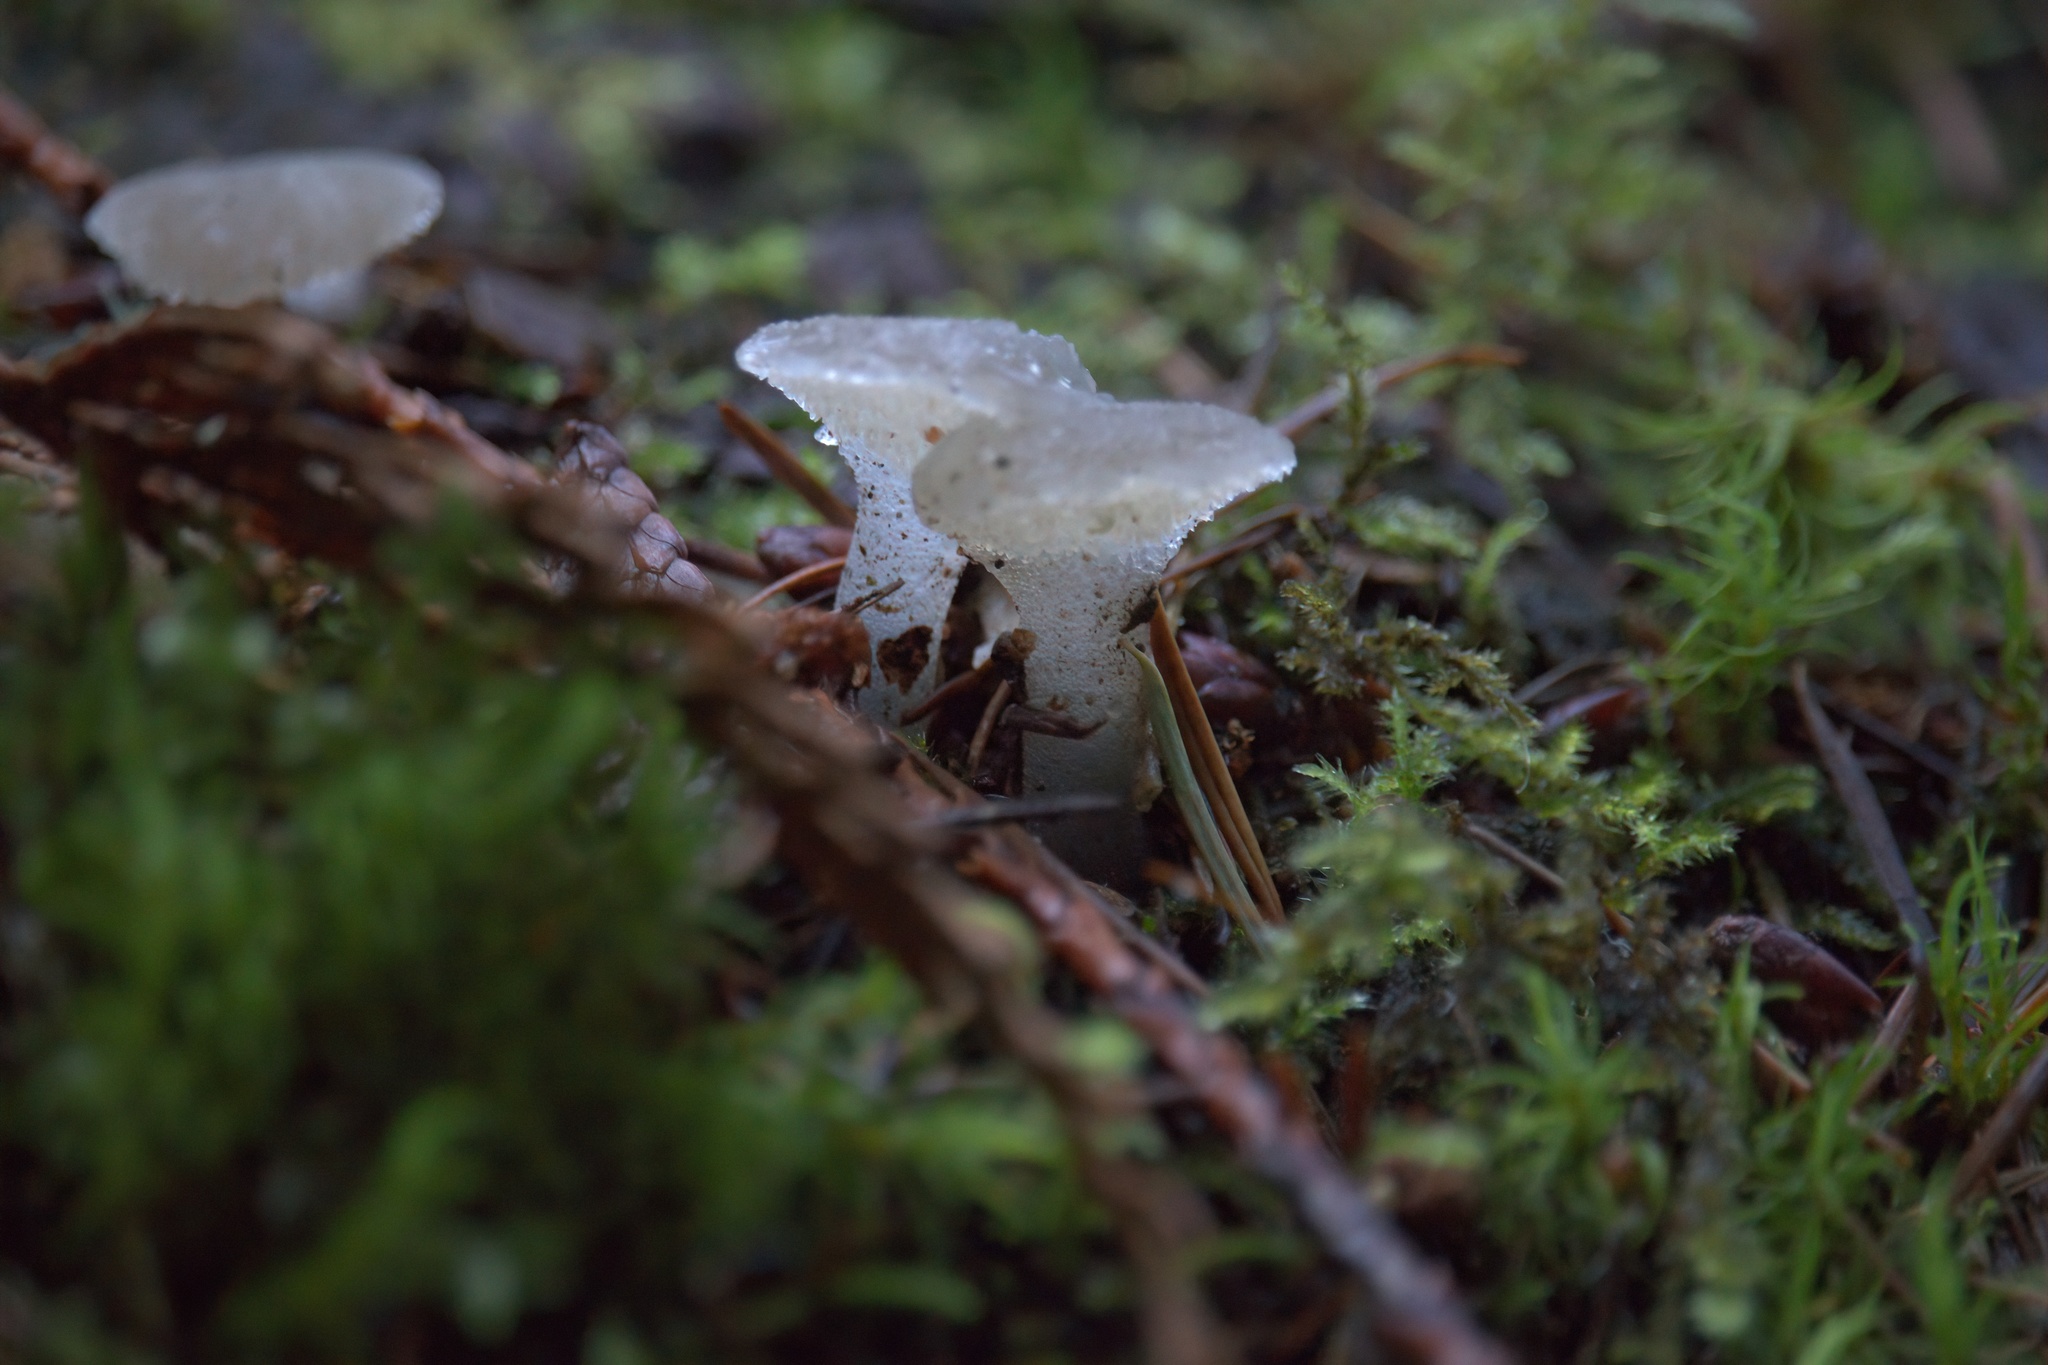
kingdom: Fungi
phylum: Basidiomycota
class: Agaricomycetes
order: Auriculariales
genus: Pseudohydnum
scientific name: Pseudohydnum gelatinosum
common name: Jelly tongue
